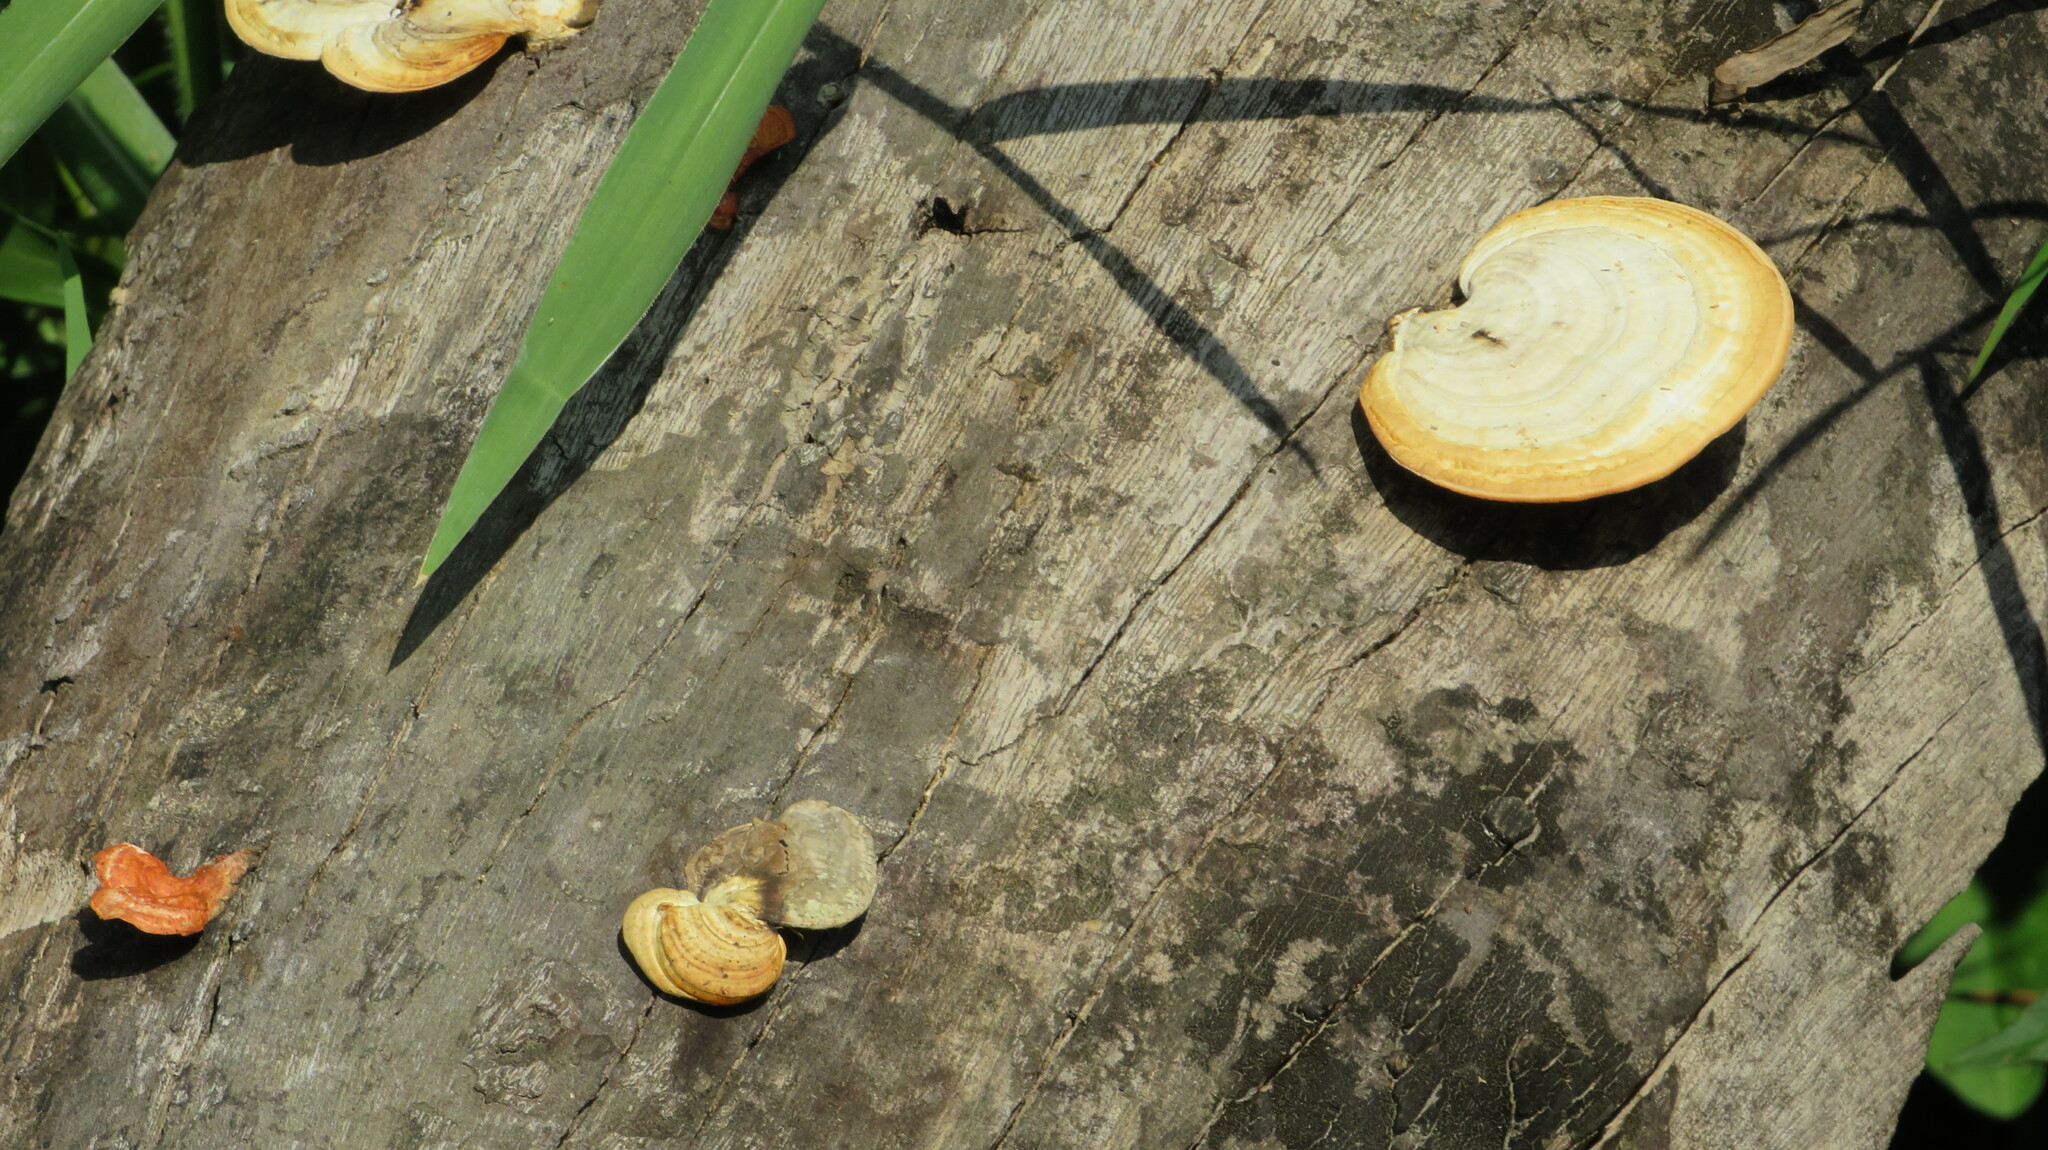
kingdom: Fungi
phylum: Basidiomycota
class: Agaricomycetes
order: Polyporales
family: Polyporaceae
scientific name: Polyporaceae
